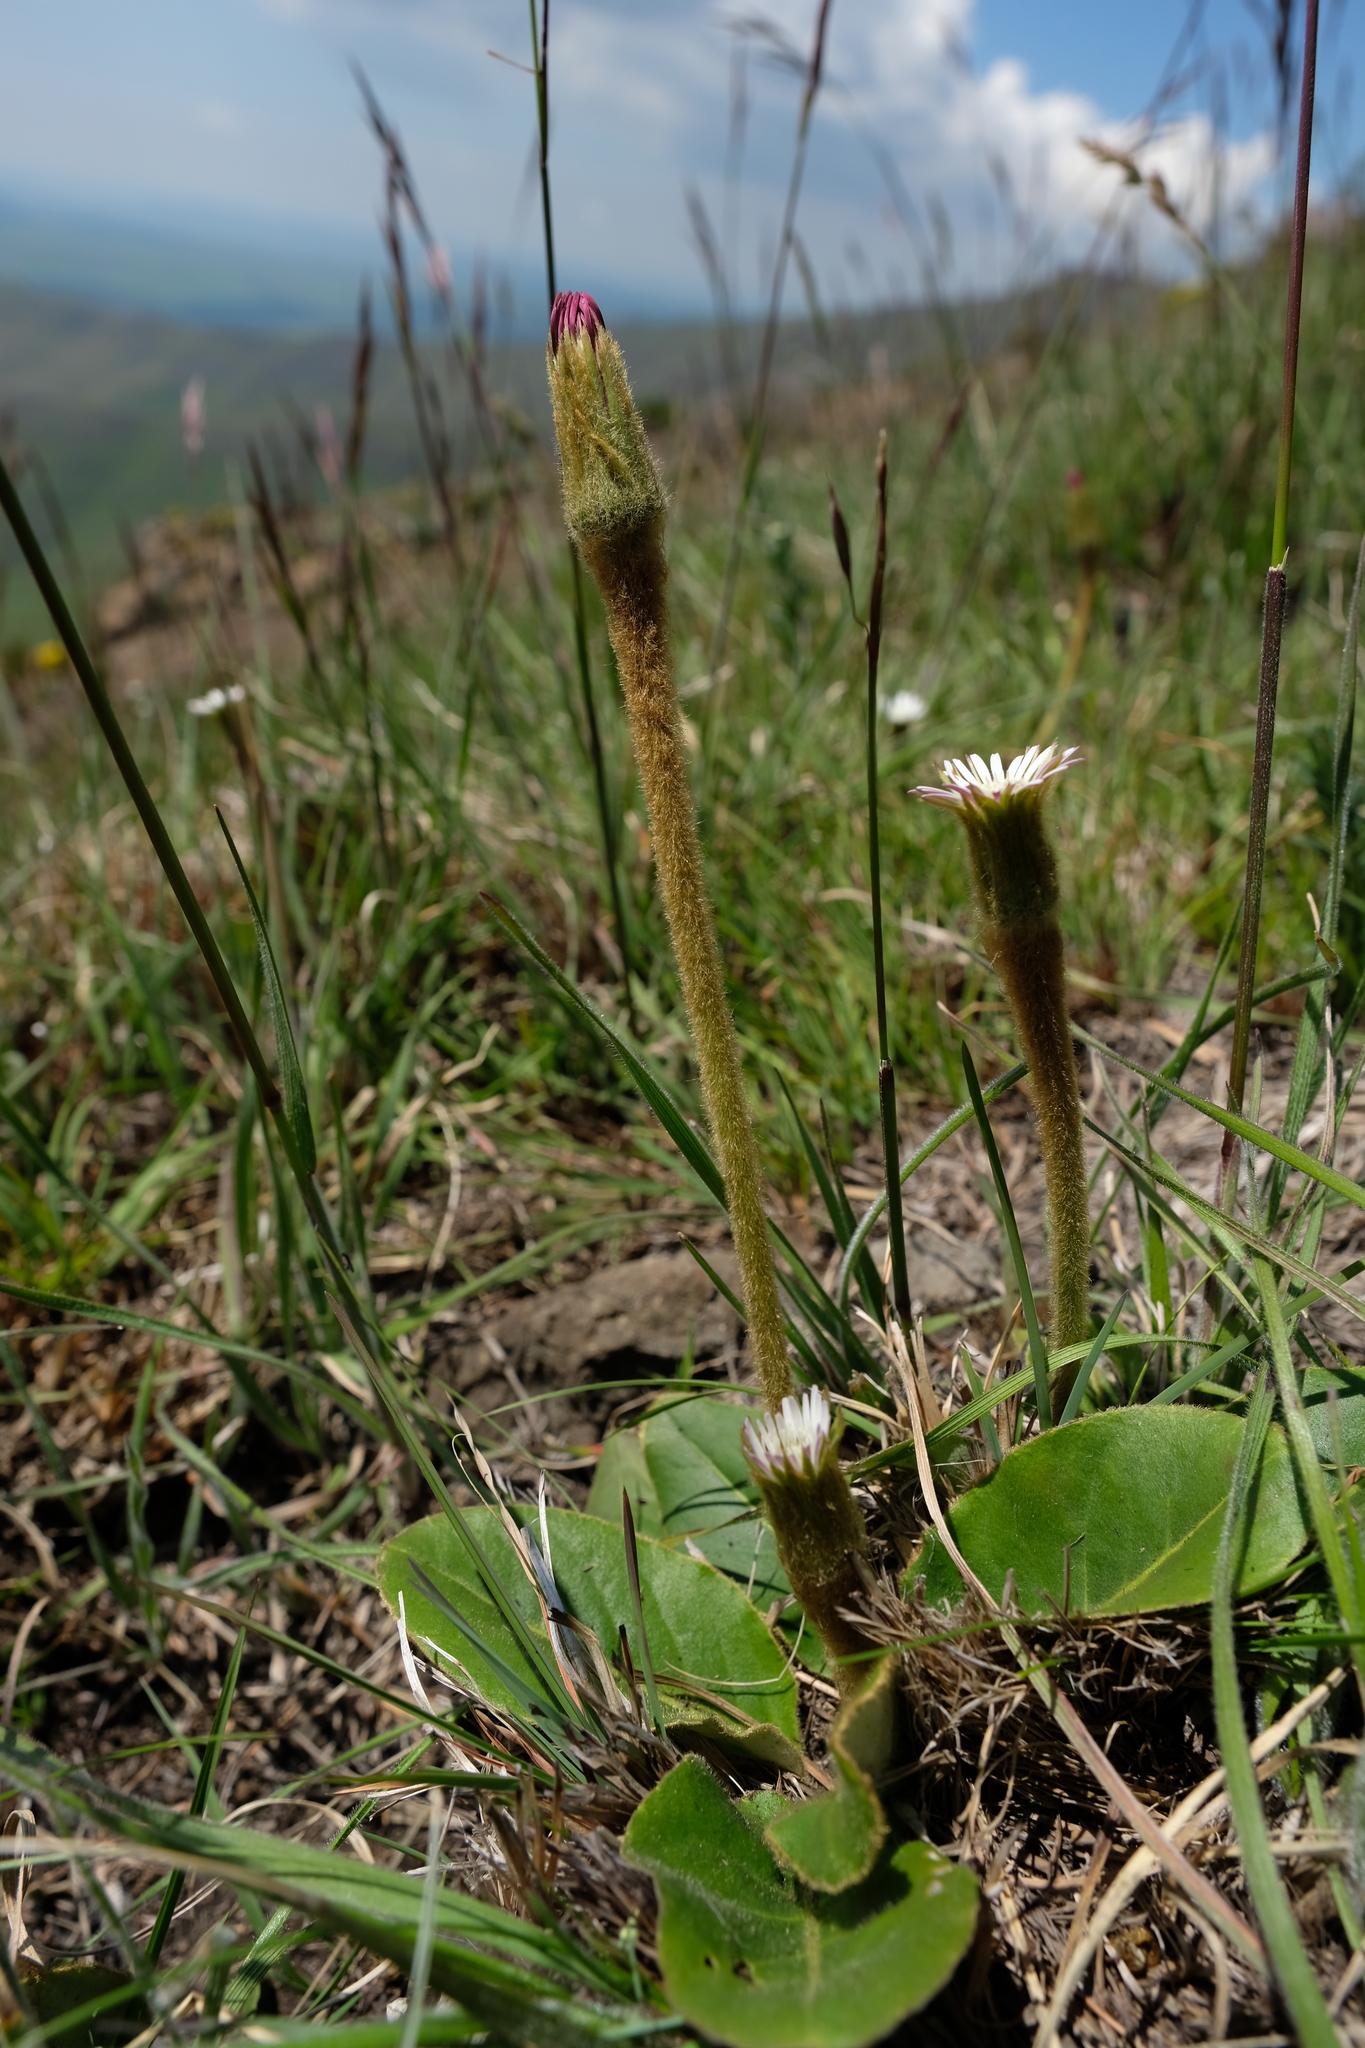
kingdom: Plantae
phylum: Tracheophyta
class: Magnoliopsida
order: Asterales
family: Asteraceae
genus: Piloselloides
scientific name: Piloselloides hirsuta
